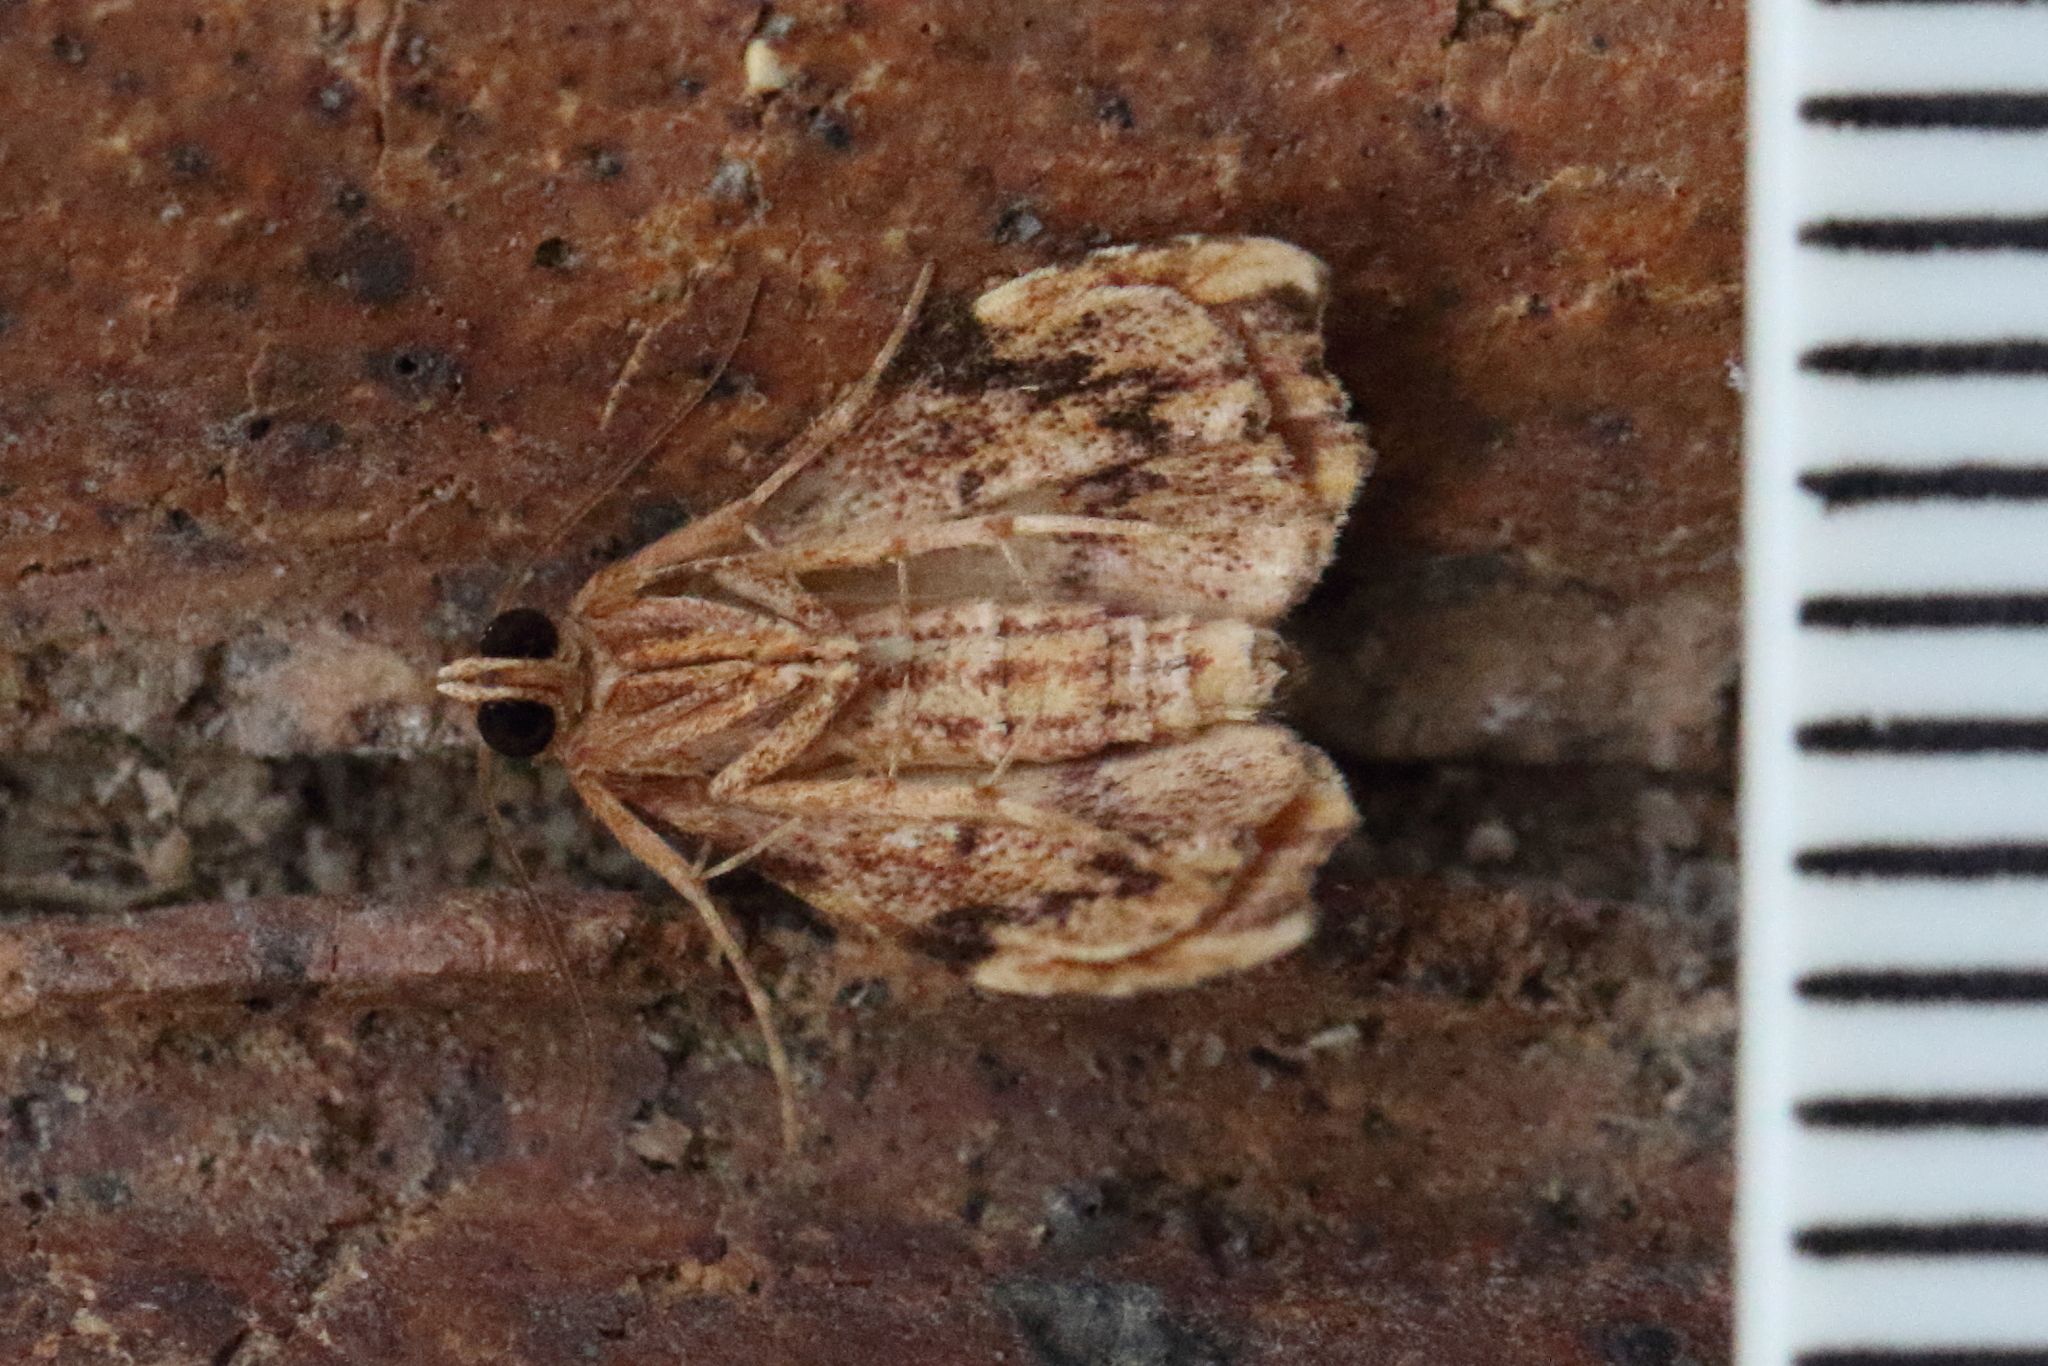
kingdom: Animalia
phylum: Arthropoda
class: Insecta
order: Lepidoptera
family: Noctuidae
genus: Heterorta
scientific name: Heterorta plutonis
